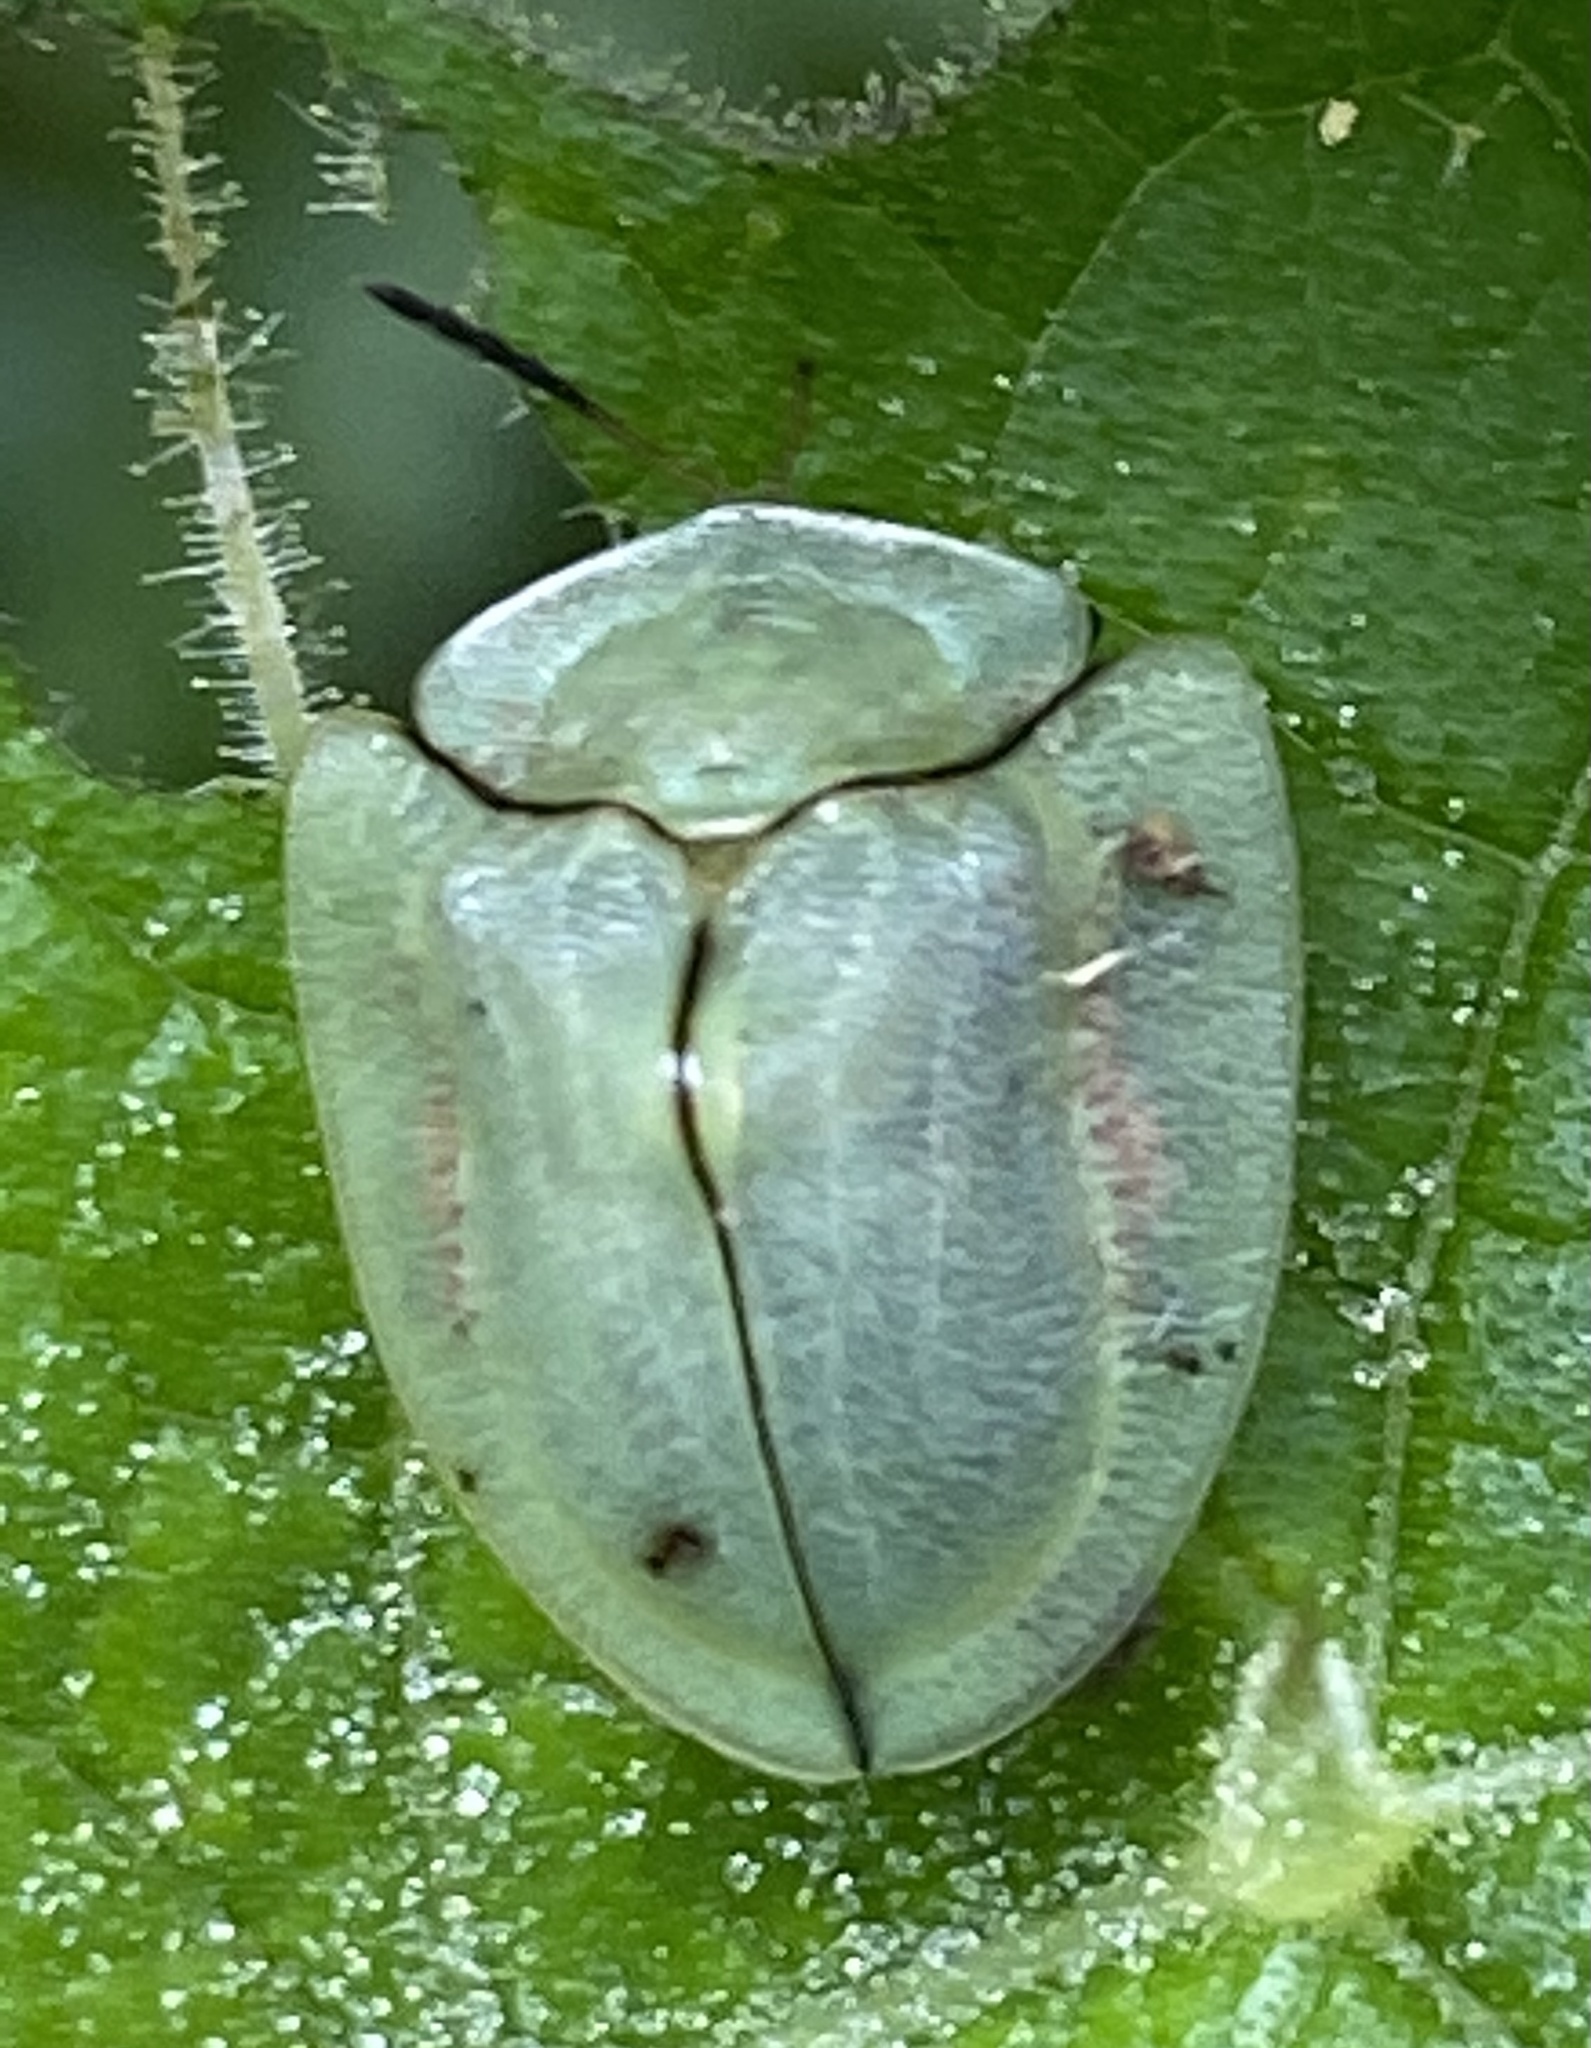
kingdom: Animalia
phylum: Arthropoda
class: Insecta
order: Coleoptera
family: Chrysomelidae
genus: Metriona
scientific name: Metriona elatior
